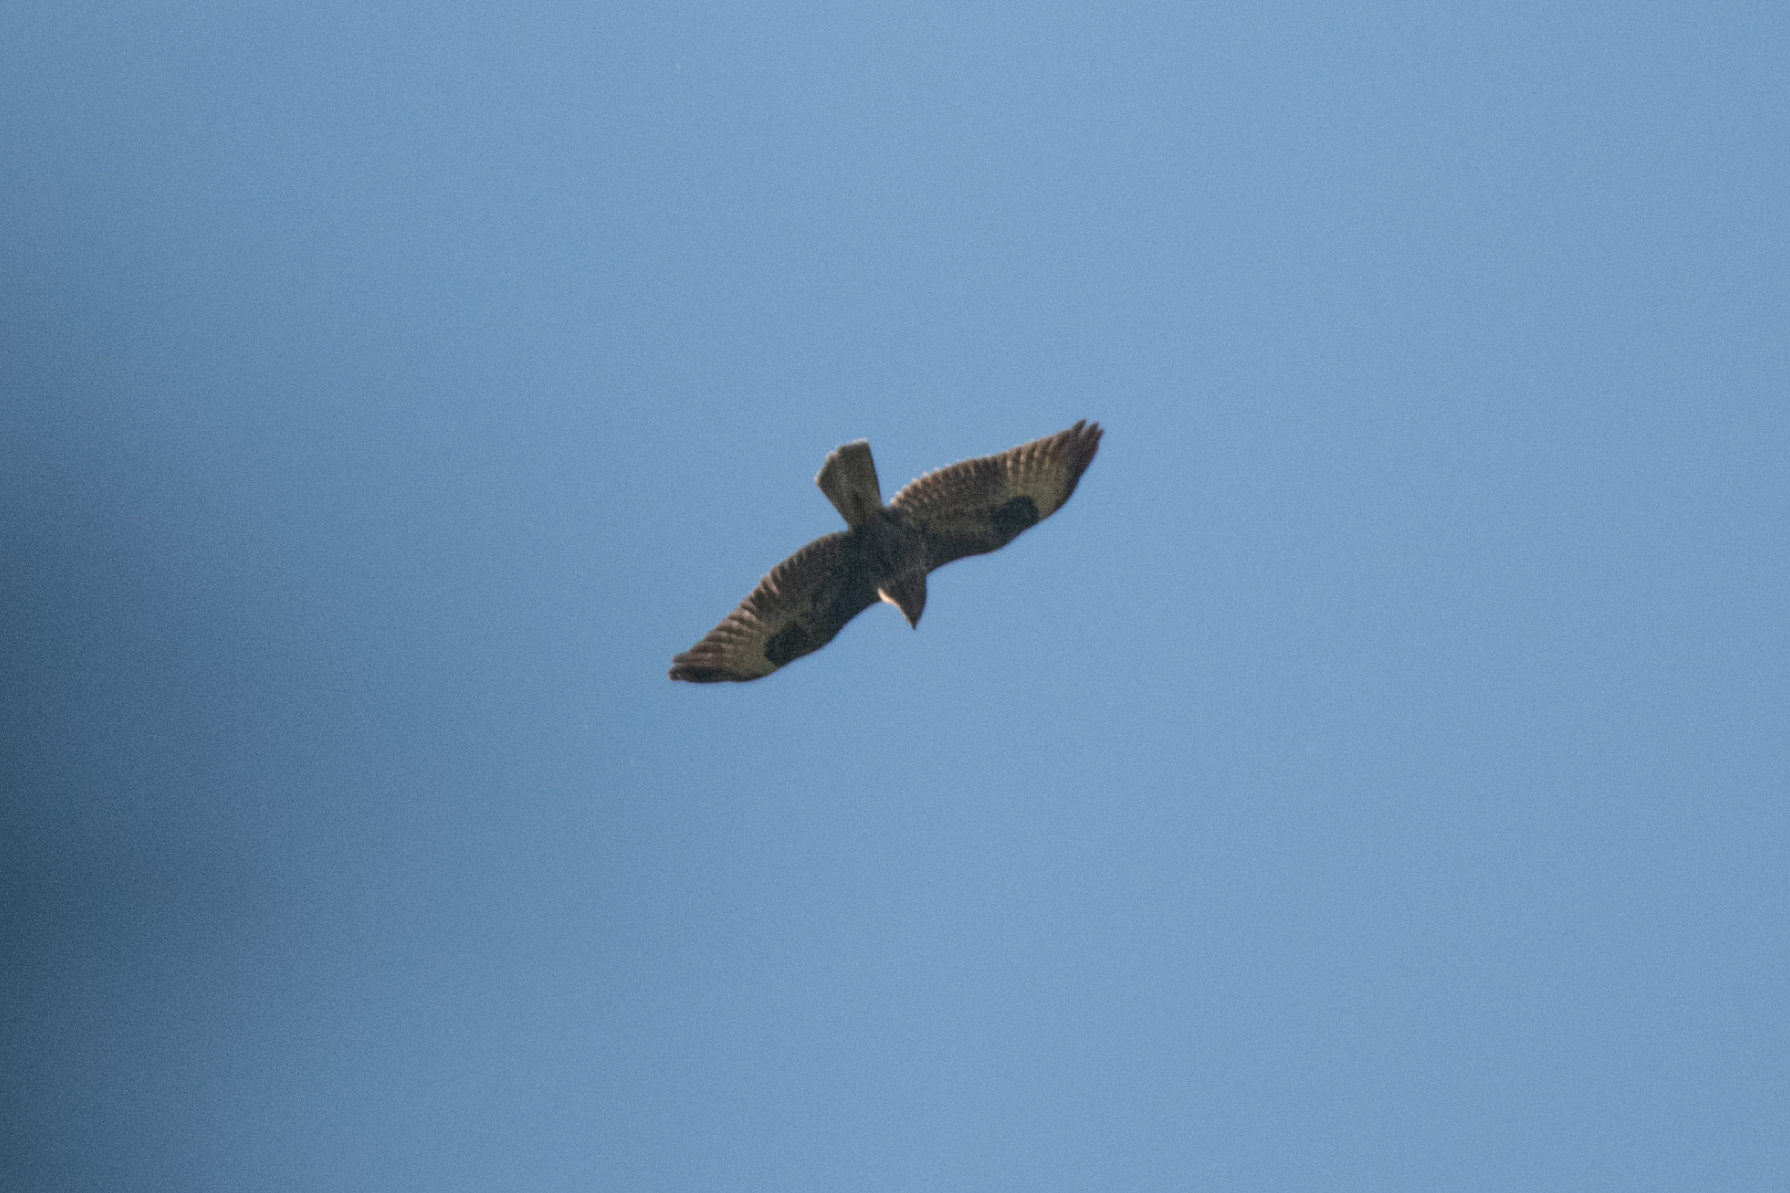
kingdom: Animalia
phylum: Chordata
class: Aves
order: Accipitriformes
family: Accipitridae
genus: Buteo
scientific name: Buteo buteo
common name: Common buzzard
